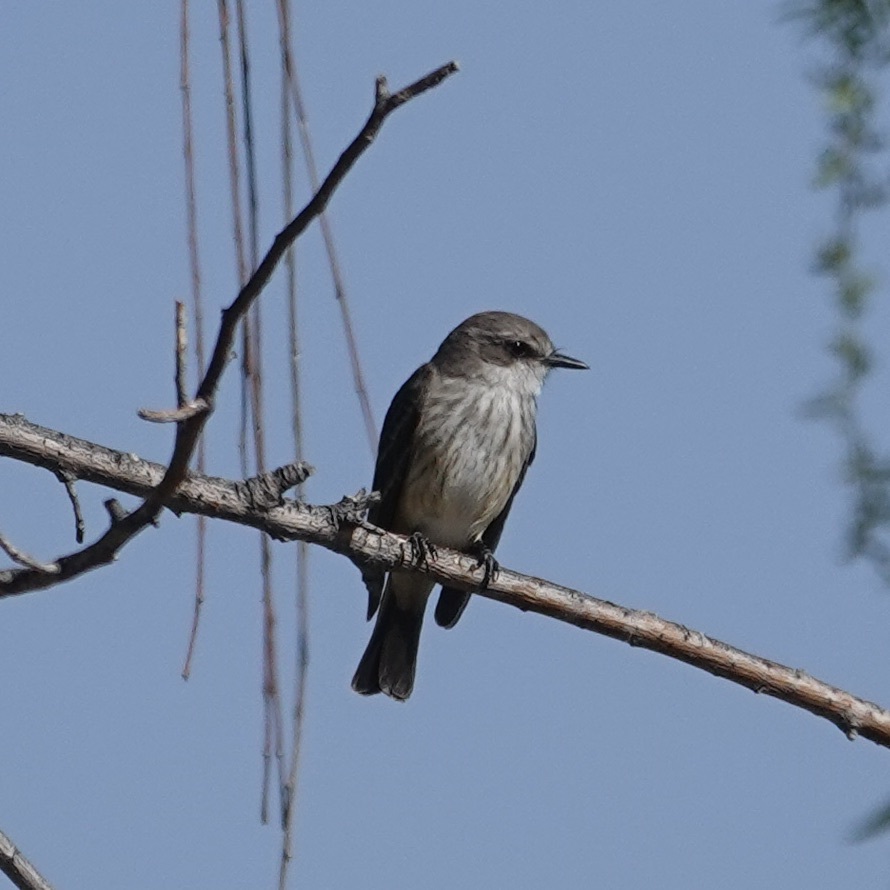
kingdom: Animalia
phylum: Chordata
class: Aves
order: Passeriformes
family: Tyrannidae
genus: Pyrocephalus
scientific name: Pyrocephalus rubinus
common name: Vermilion flycatcher
